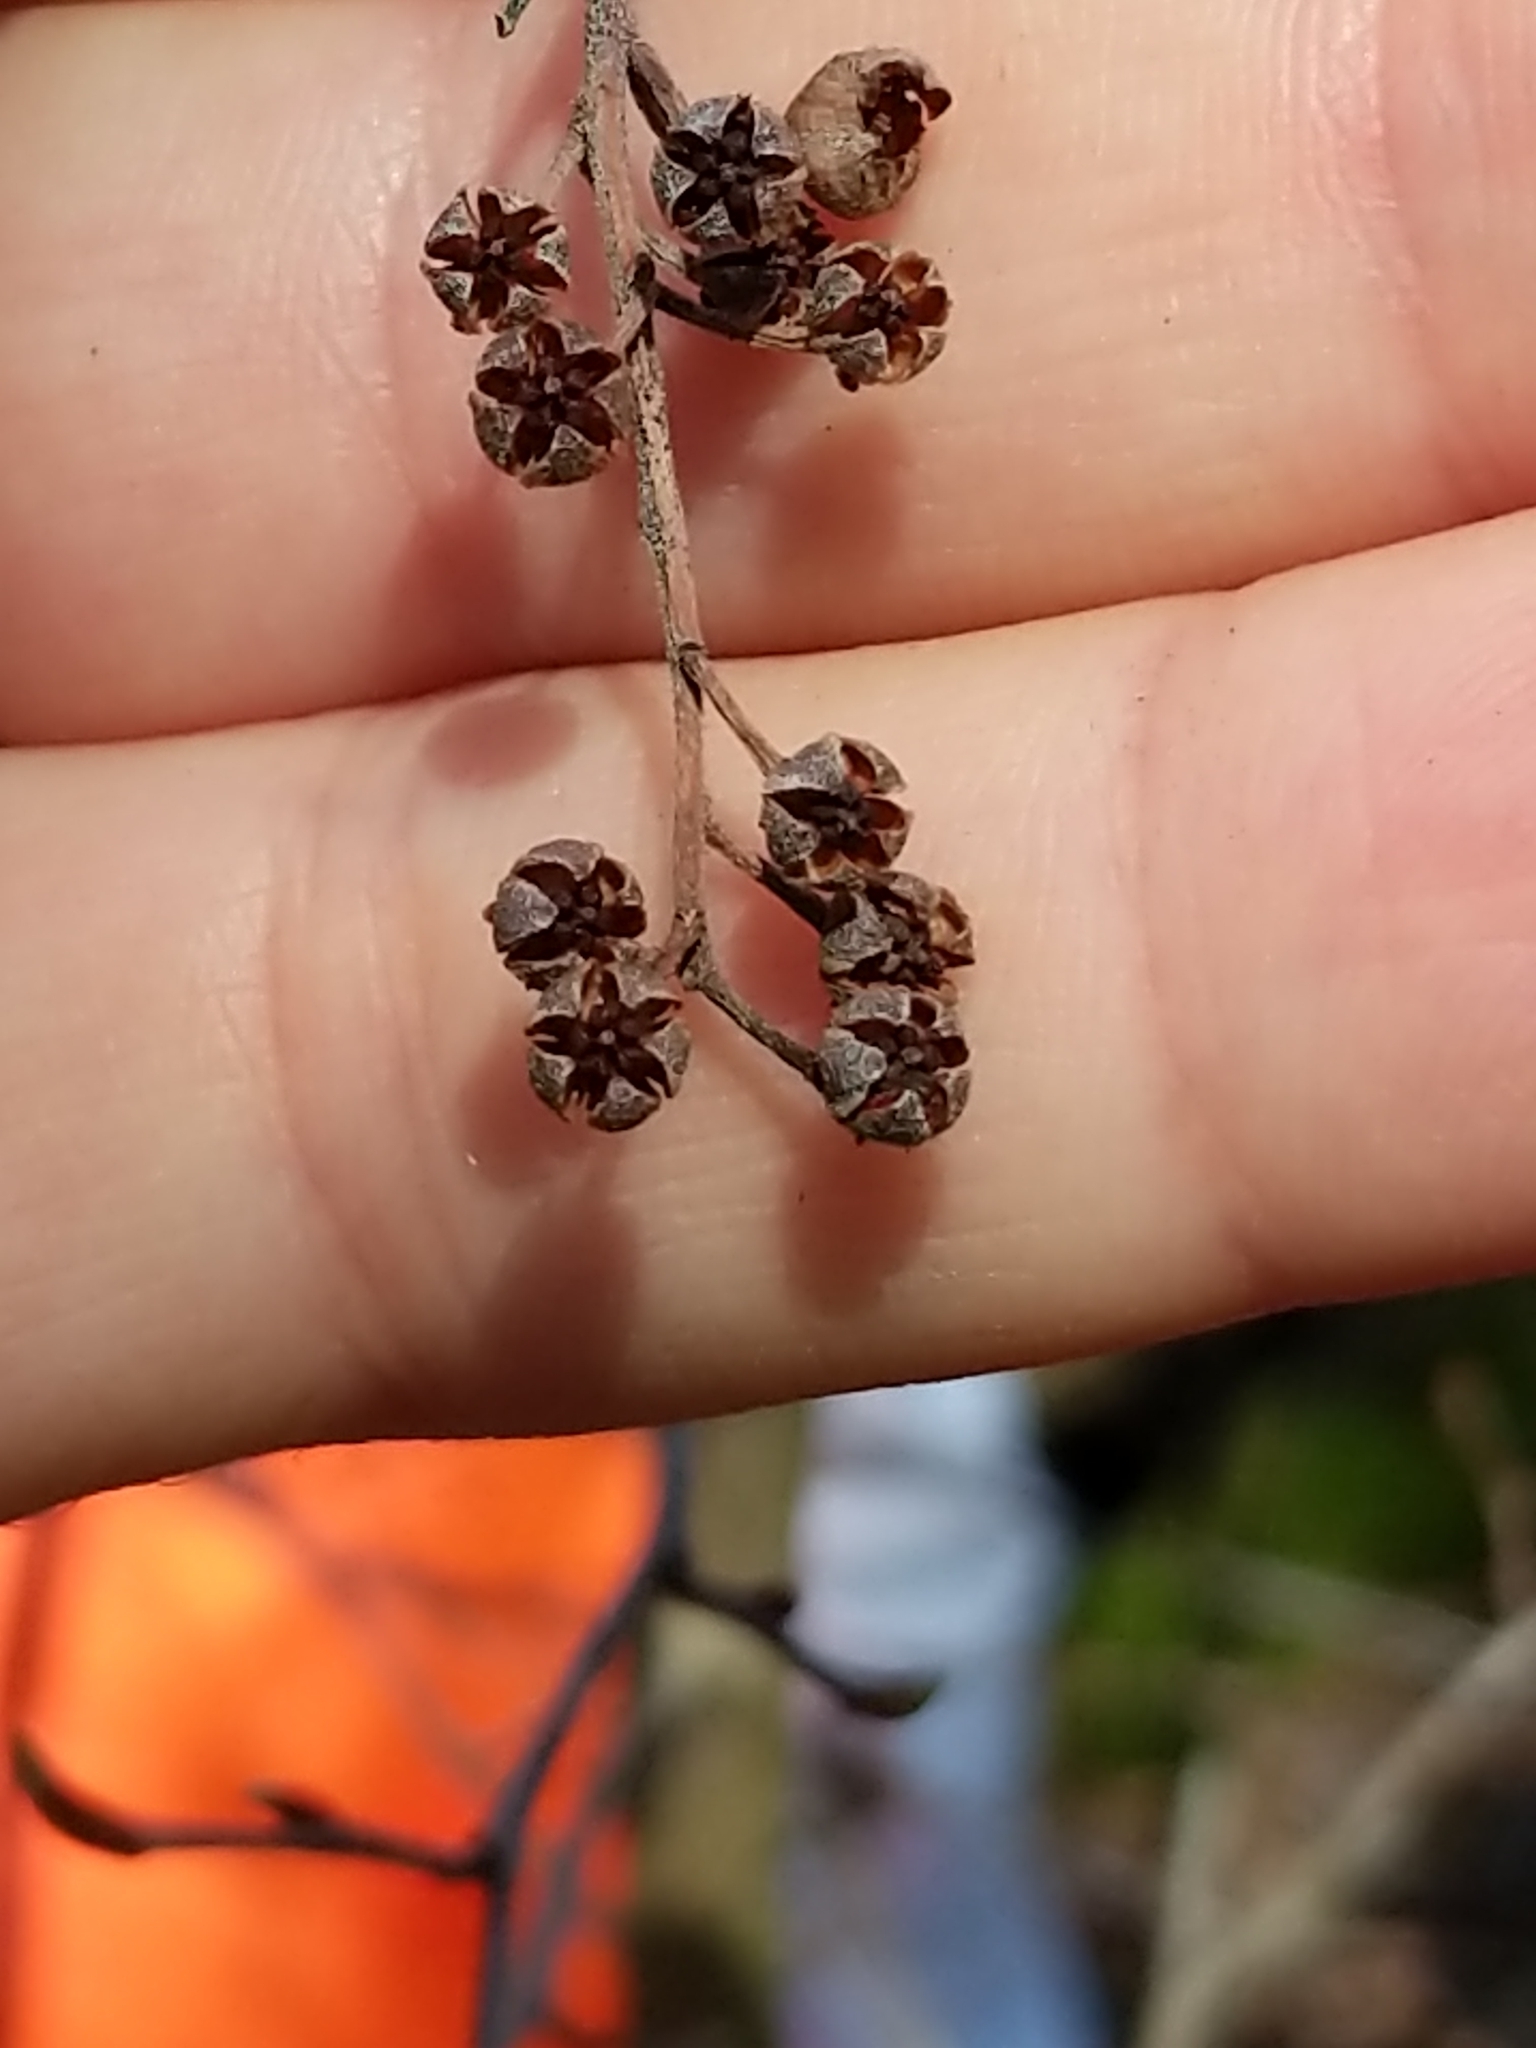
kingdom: Plantae
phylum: Tracheophyta
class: Magnoliopsida
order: Ericales
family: Ericaceae
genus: Lyonia
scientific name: Lyonia ligustrina
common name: Maleberry
